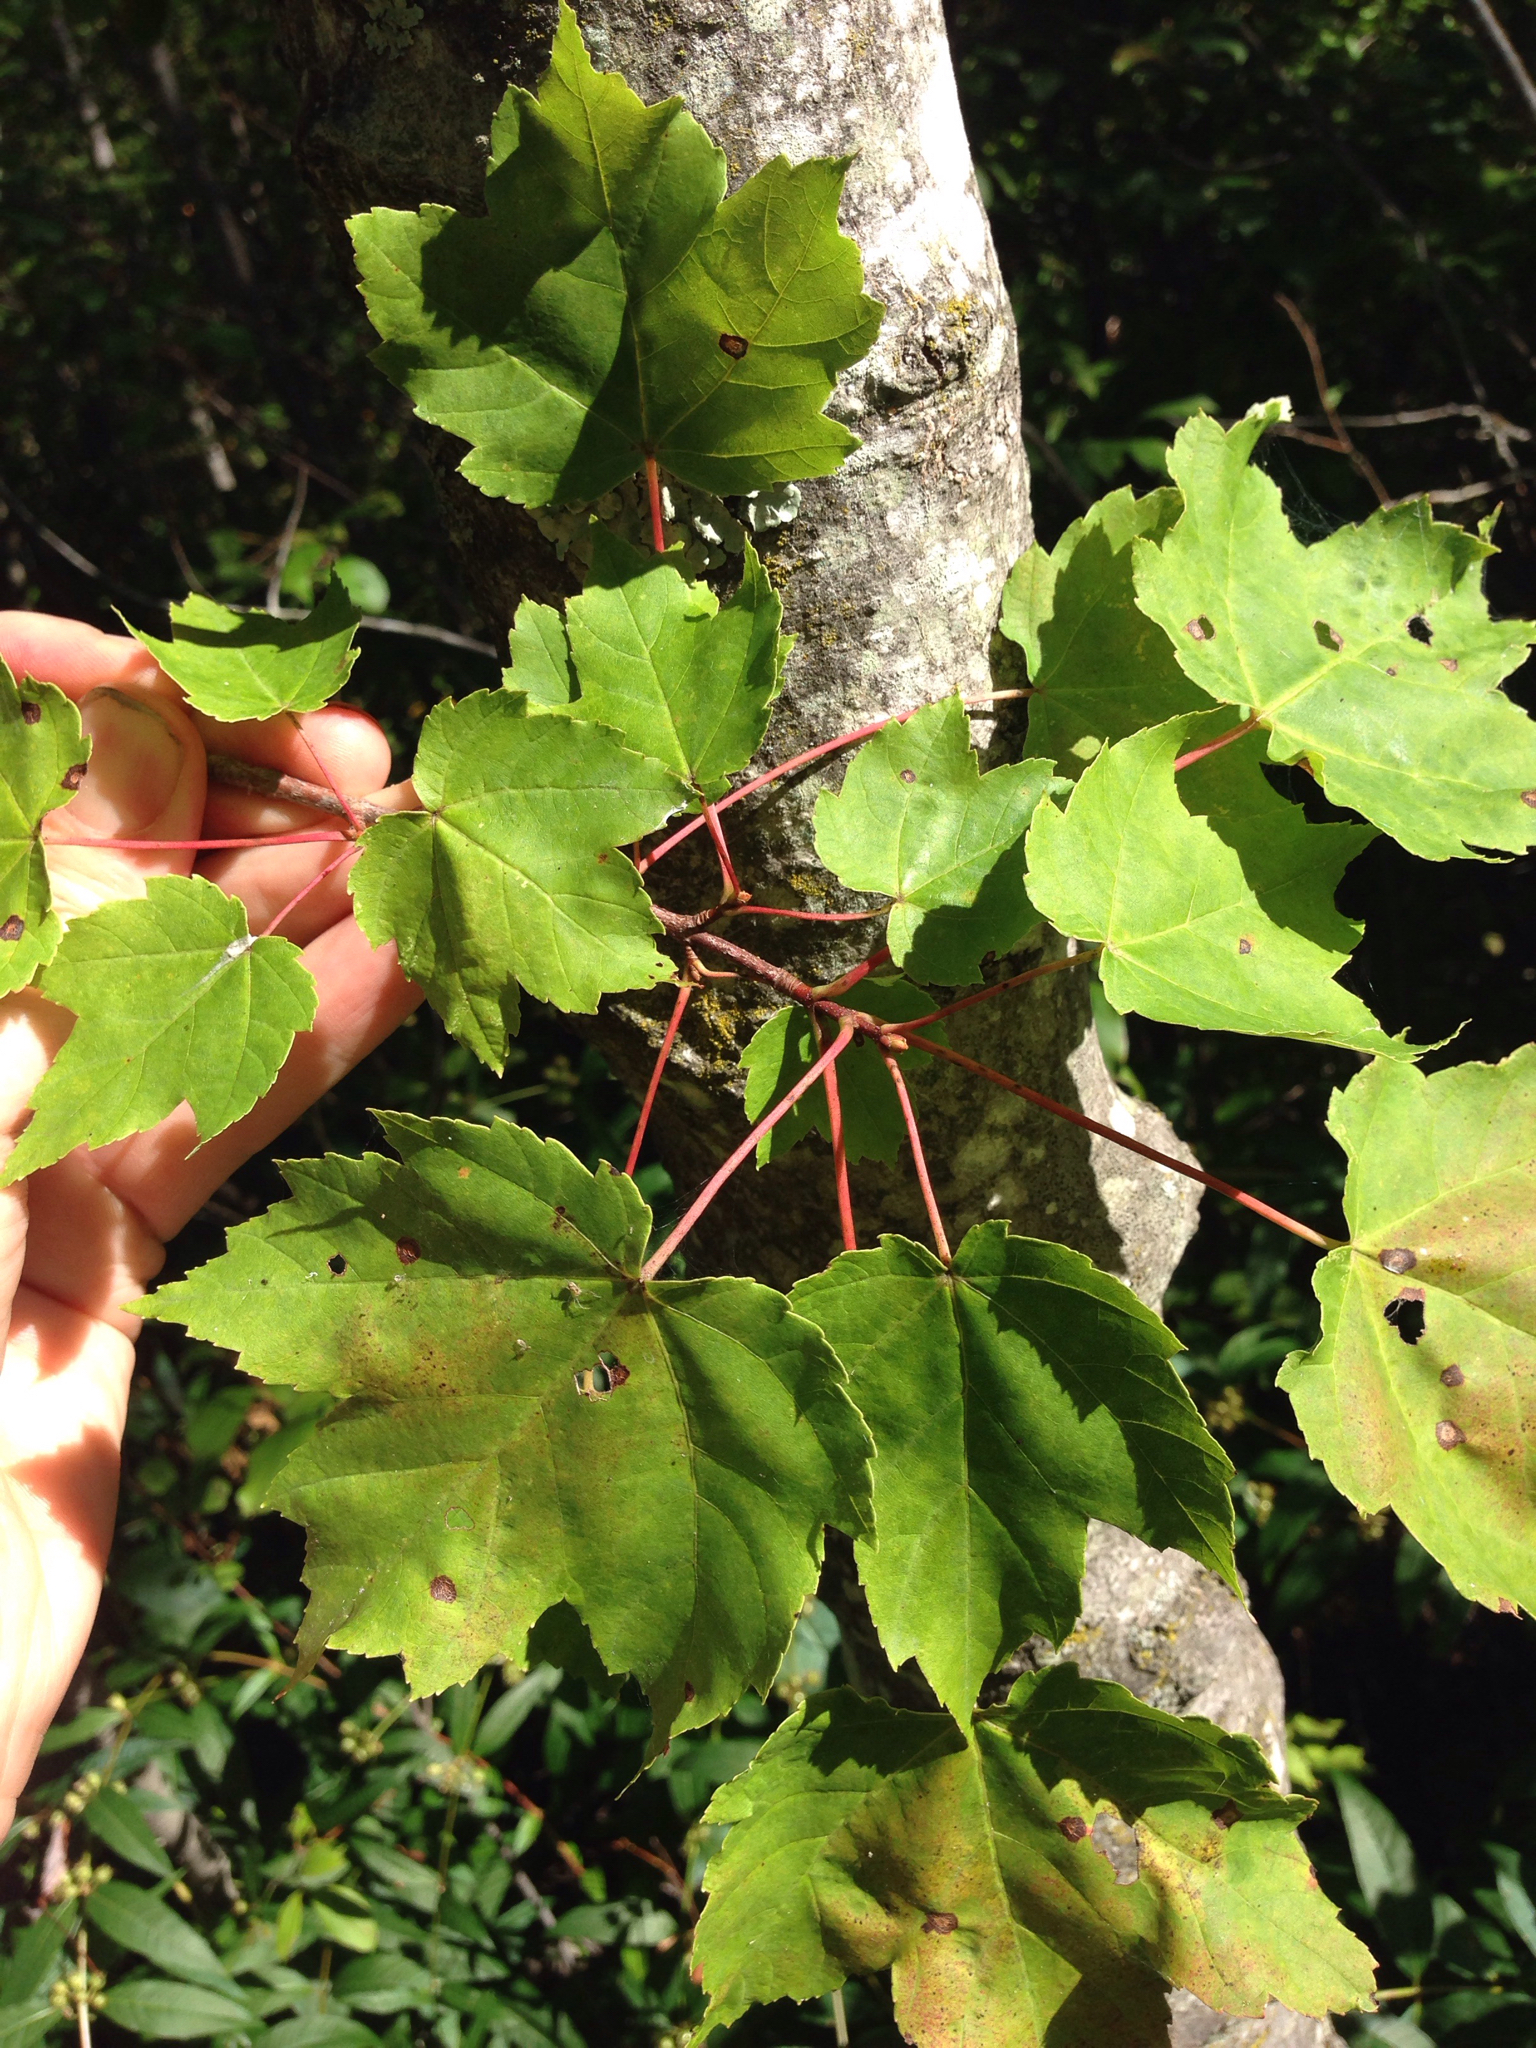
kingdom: Plantae
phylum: Tracheophyta
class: Magnoliopsida
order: Sapindales
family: Sapindaceae
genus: Acer
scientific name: Acer rubrum
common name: Red maple
